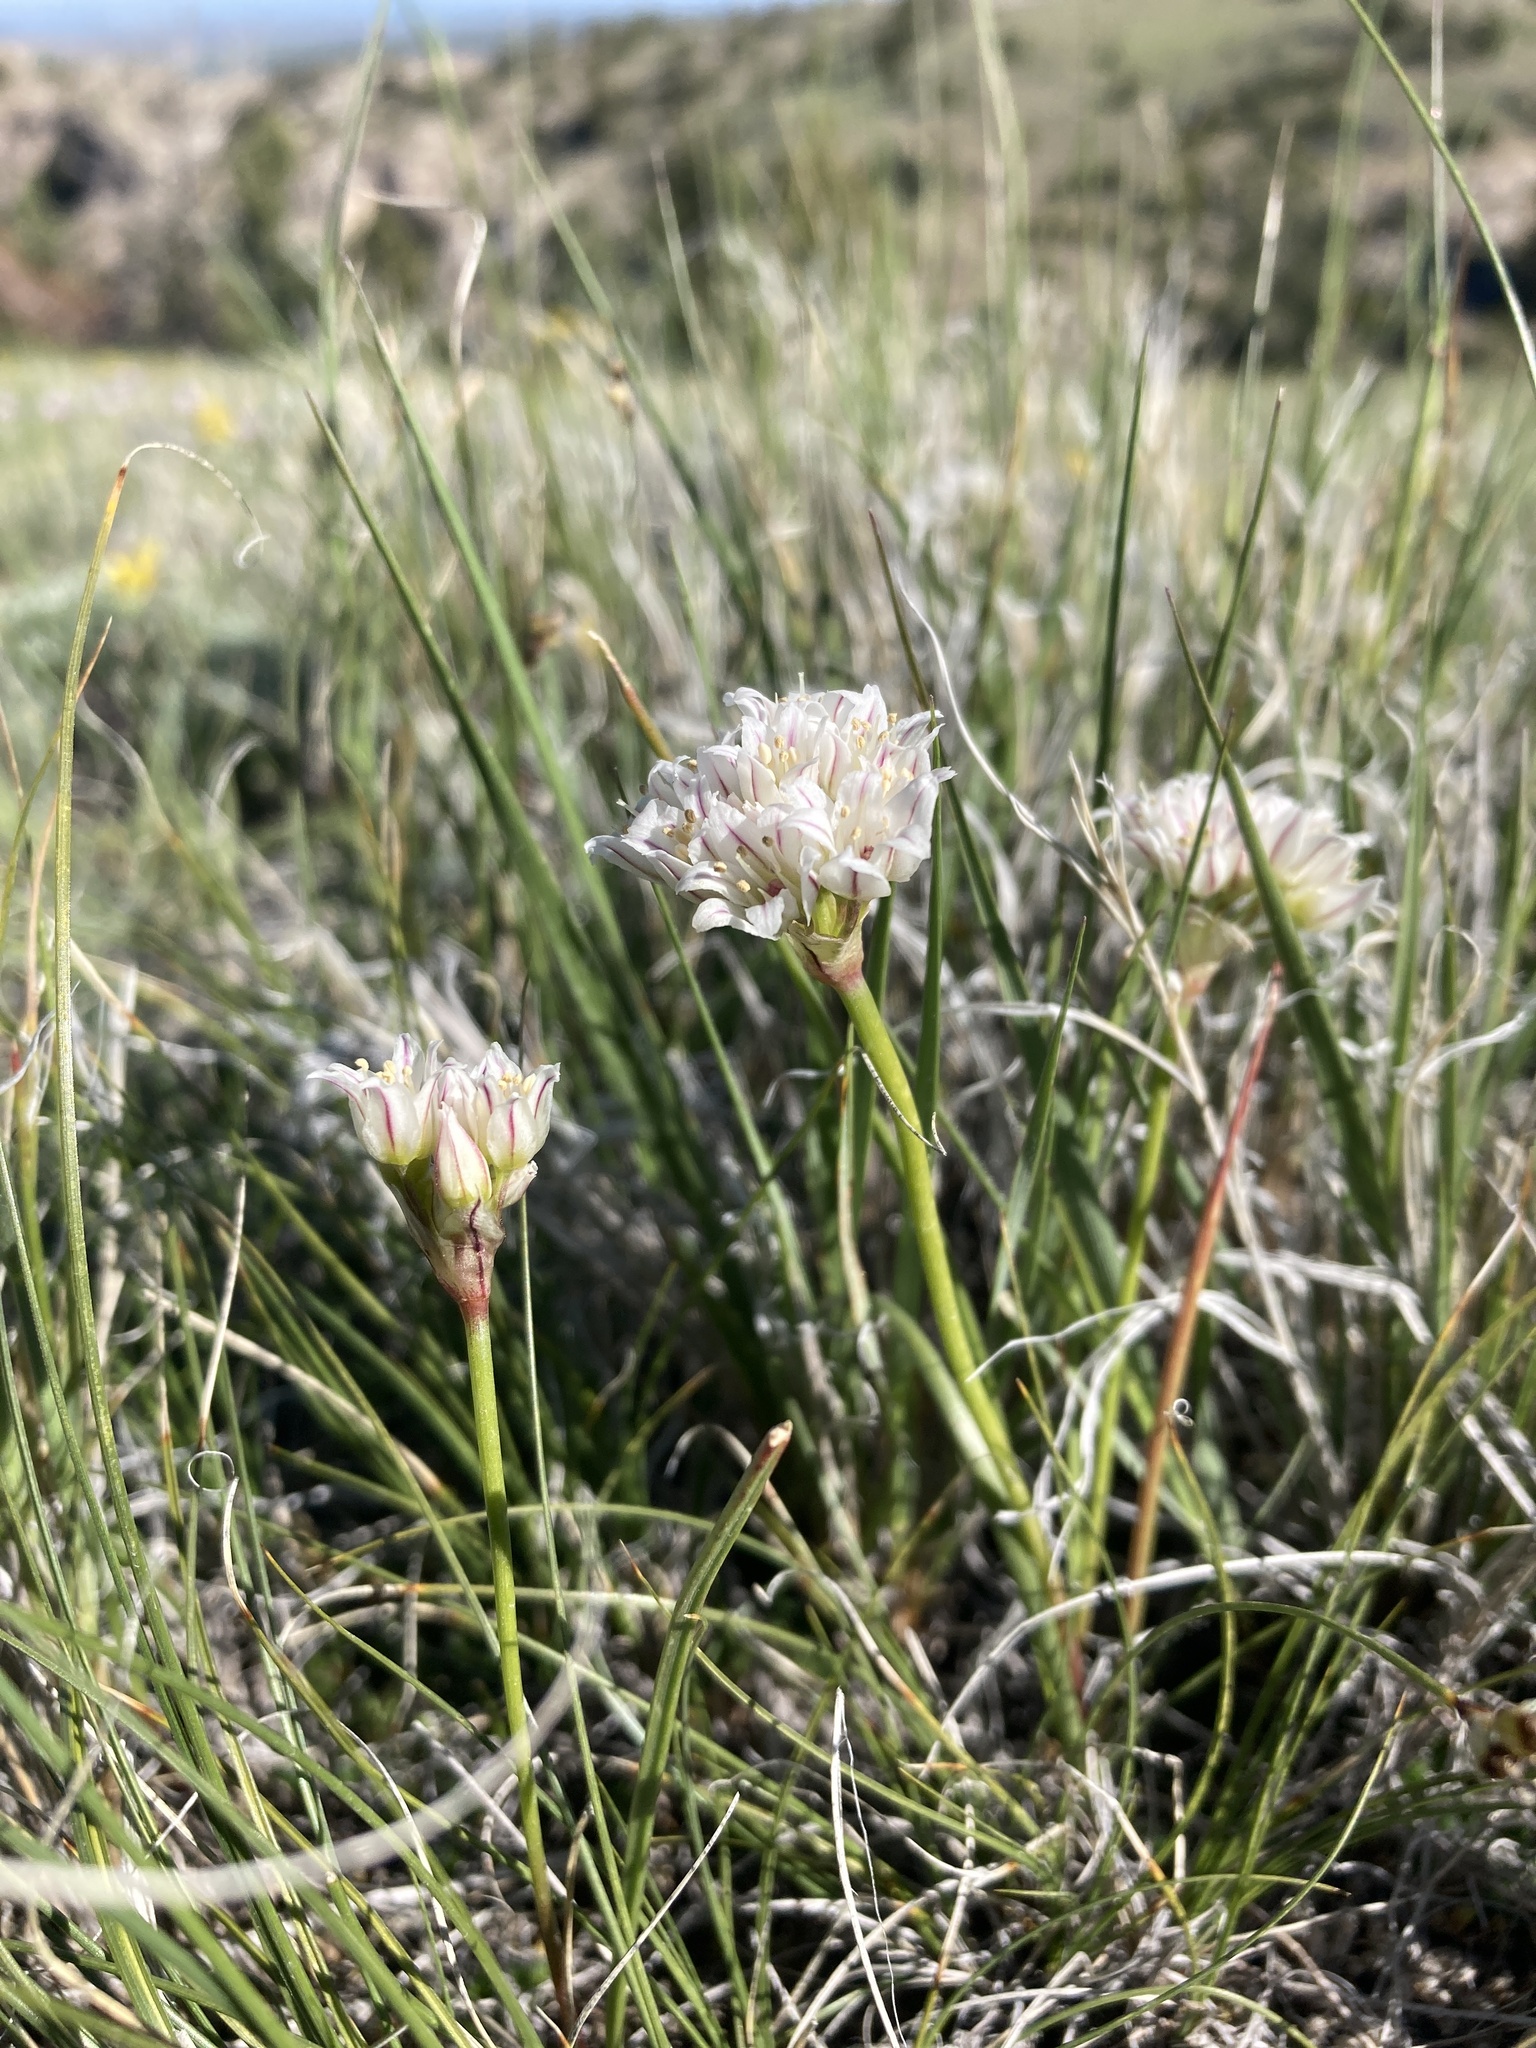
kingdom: Plantae
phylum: Tracheophyta
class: Liliopsida
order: Asparagales
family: Amaryllidaceae
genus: Allium
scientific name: Allium textile
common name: Prairie onion
